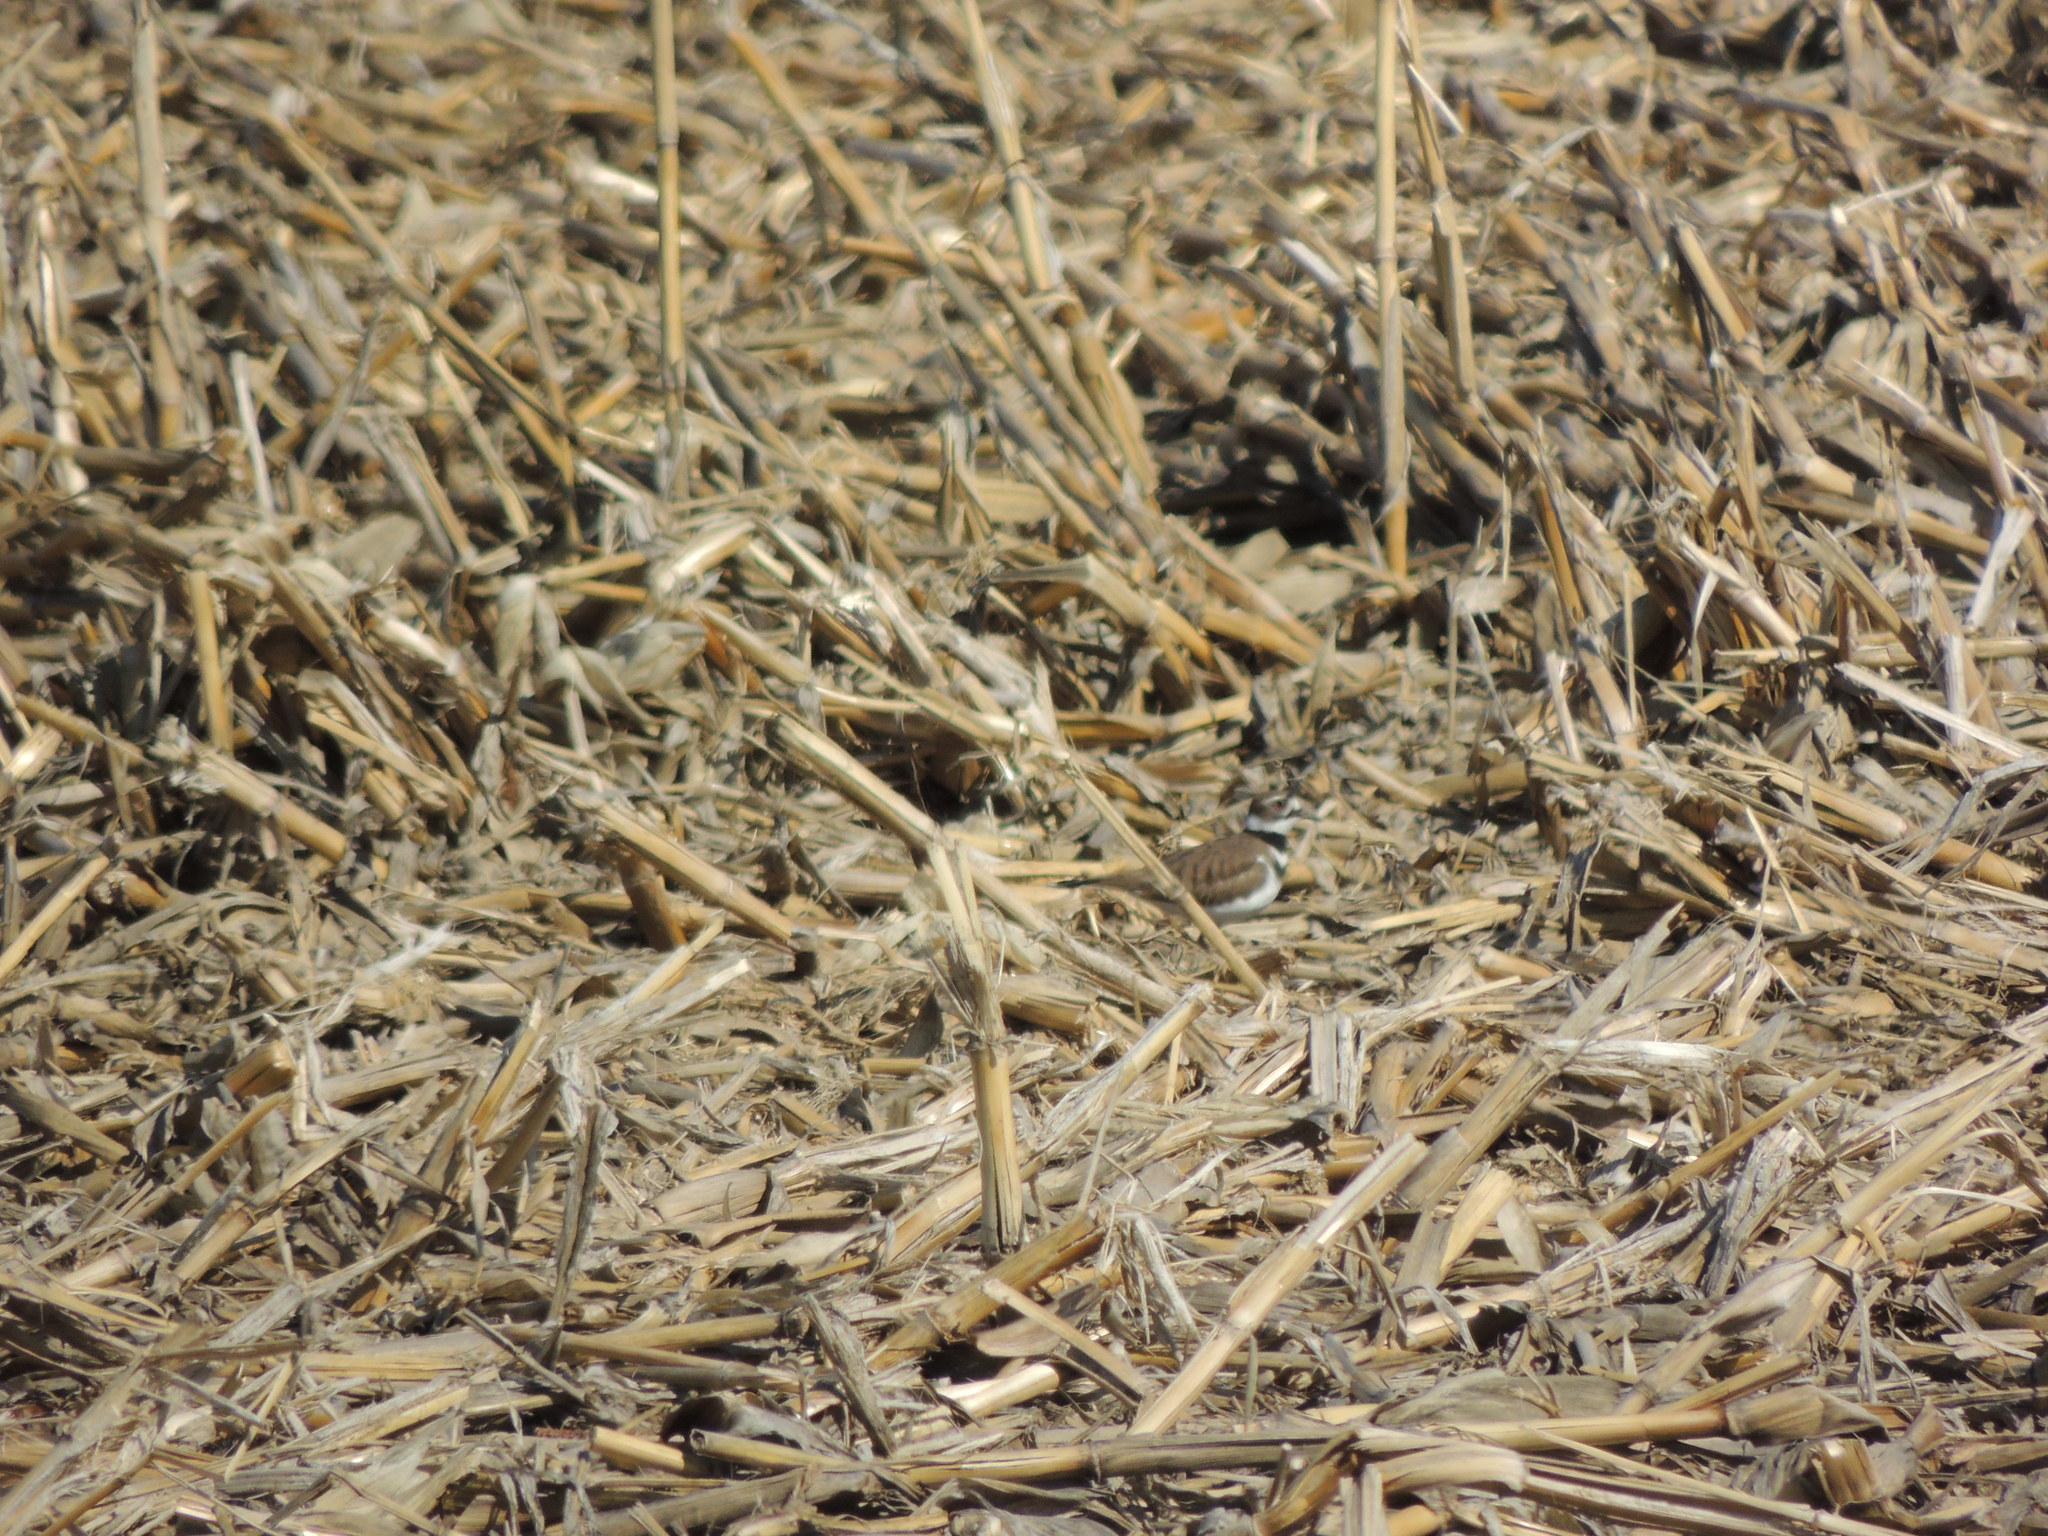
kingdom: Animalia
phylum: Chordata
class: Aves
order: Charadriiformes
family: Charadriidae
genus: Charadrius
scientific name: Charadrius vociferus
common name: Killdeer
